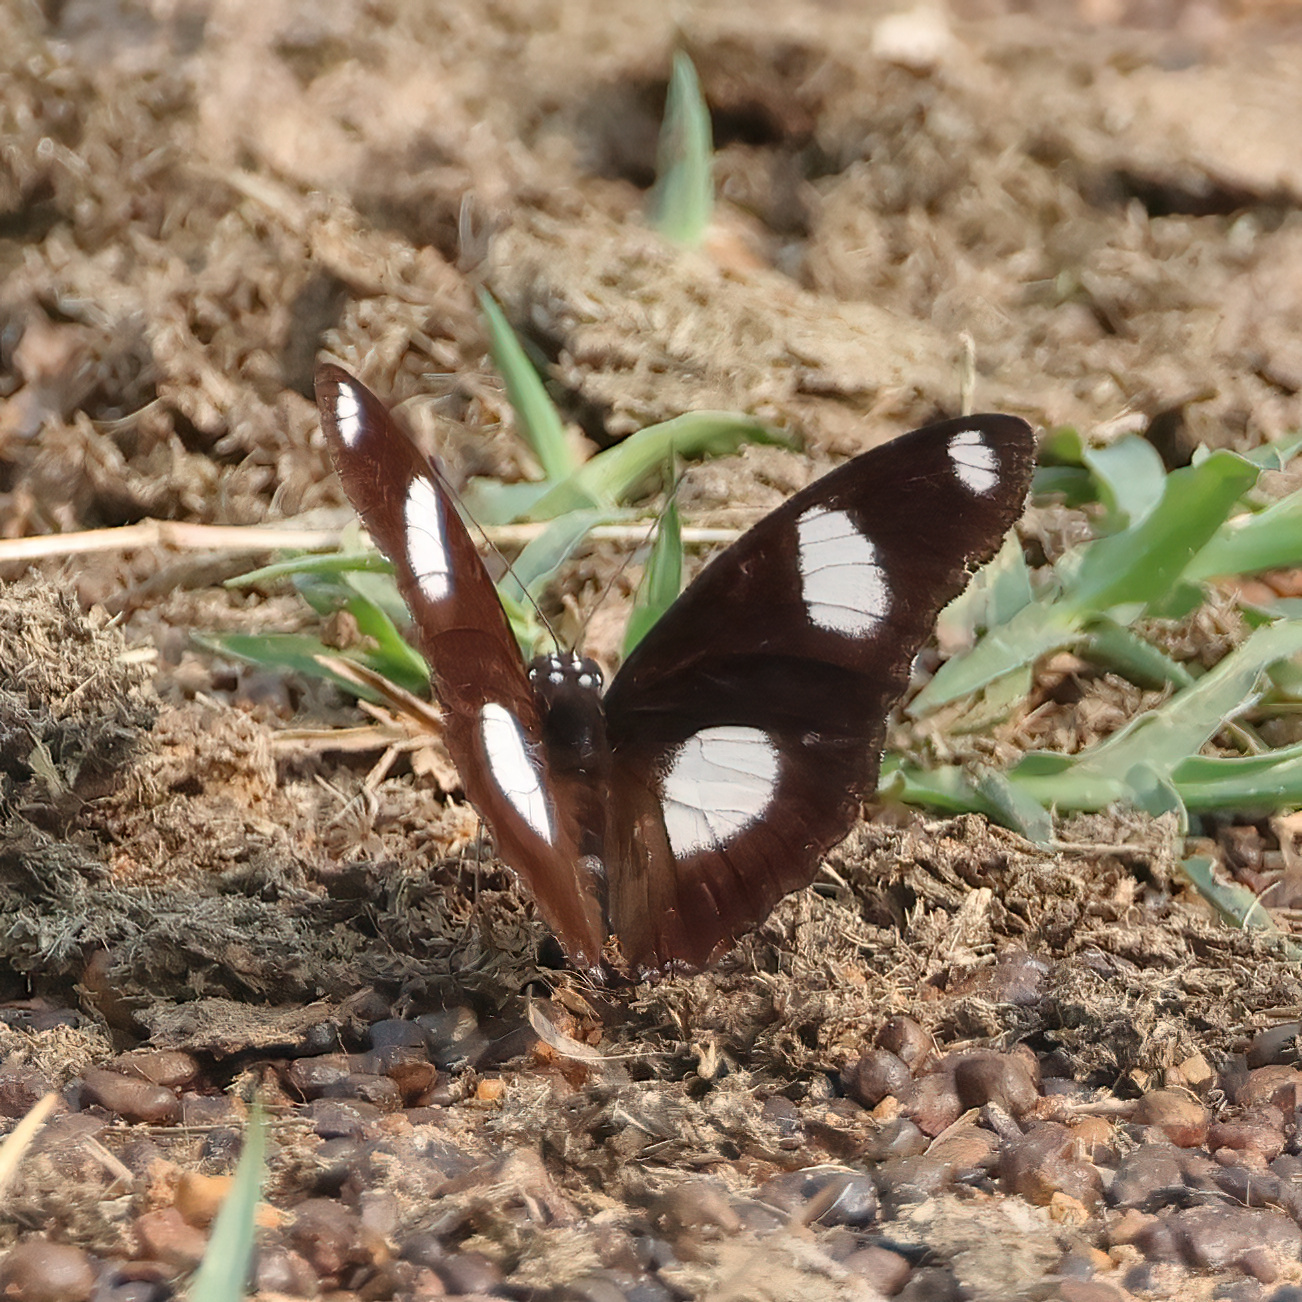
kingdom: Animalia
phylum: Arthropoda
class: Insecta
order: Lepidoptera
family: Nymphalidae
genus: Hypolimnas
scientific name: Hypolimnas misippus
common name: False plain tiger
